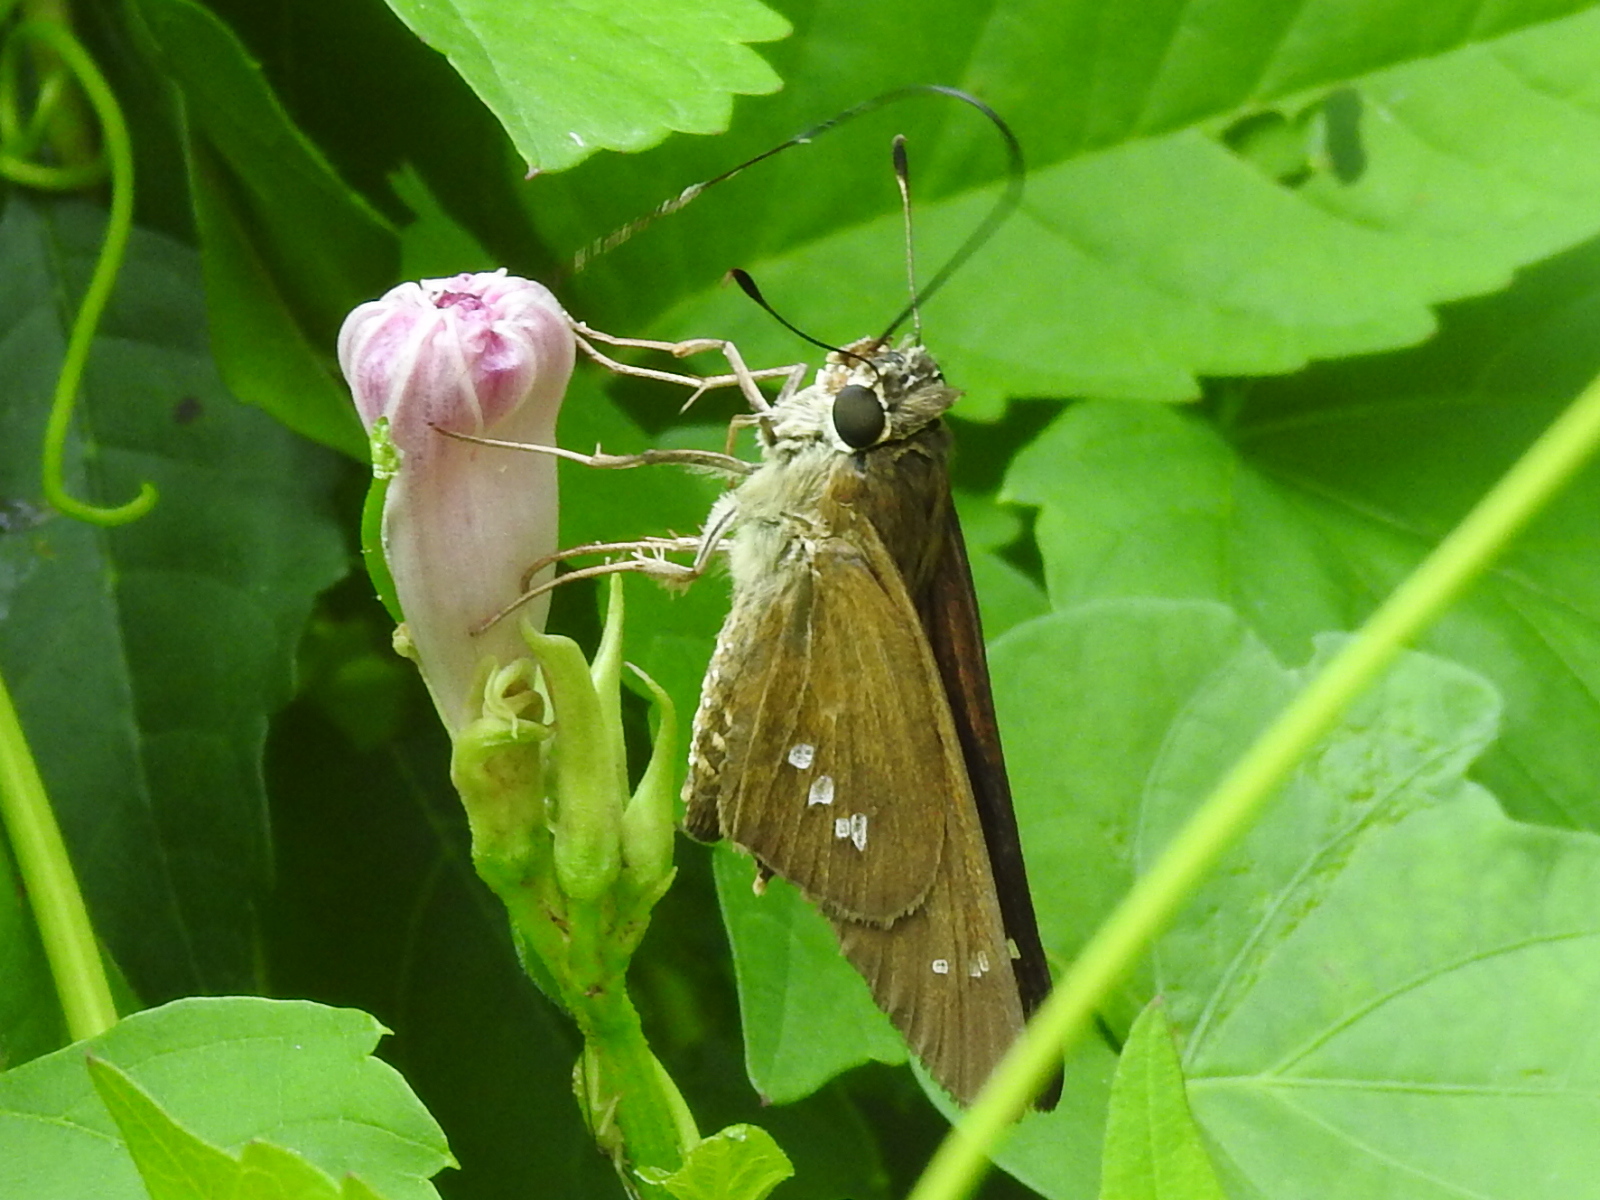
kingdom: Animalia
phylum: Arthropoda
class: Insecta
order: Lepidoptera
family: Hesperiidae
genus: Calpodes
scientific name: Calpodes ethlius
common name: Brazilian skipper
